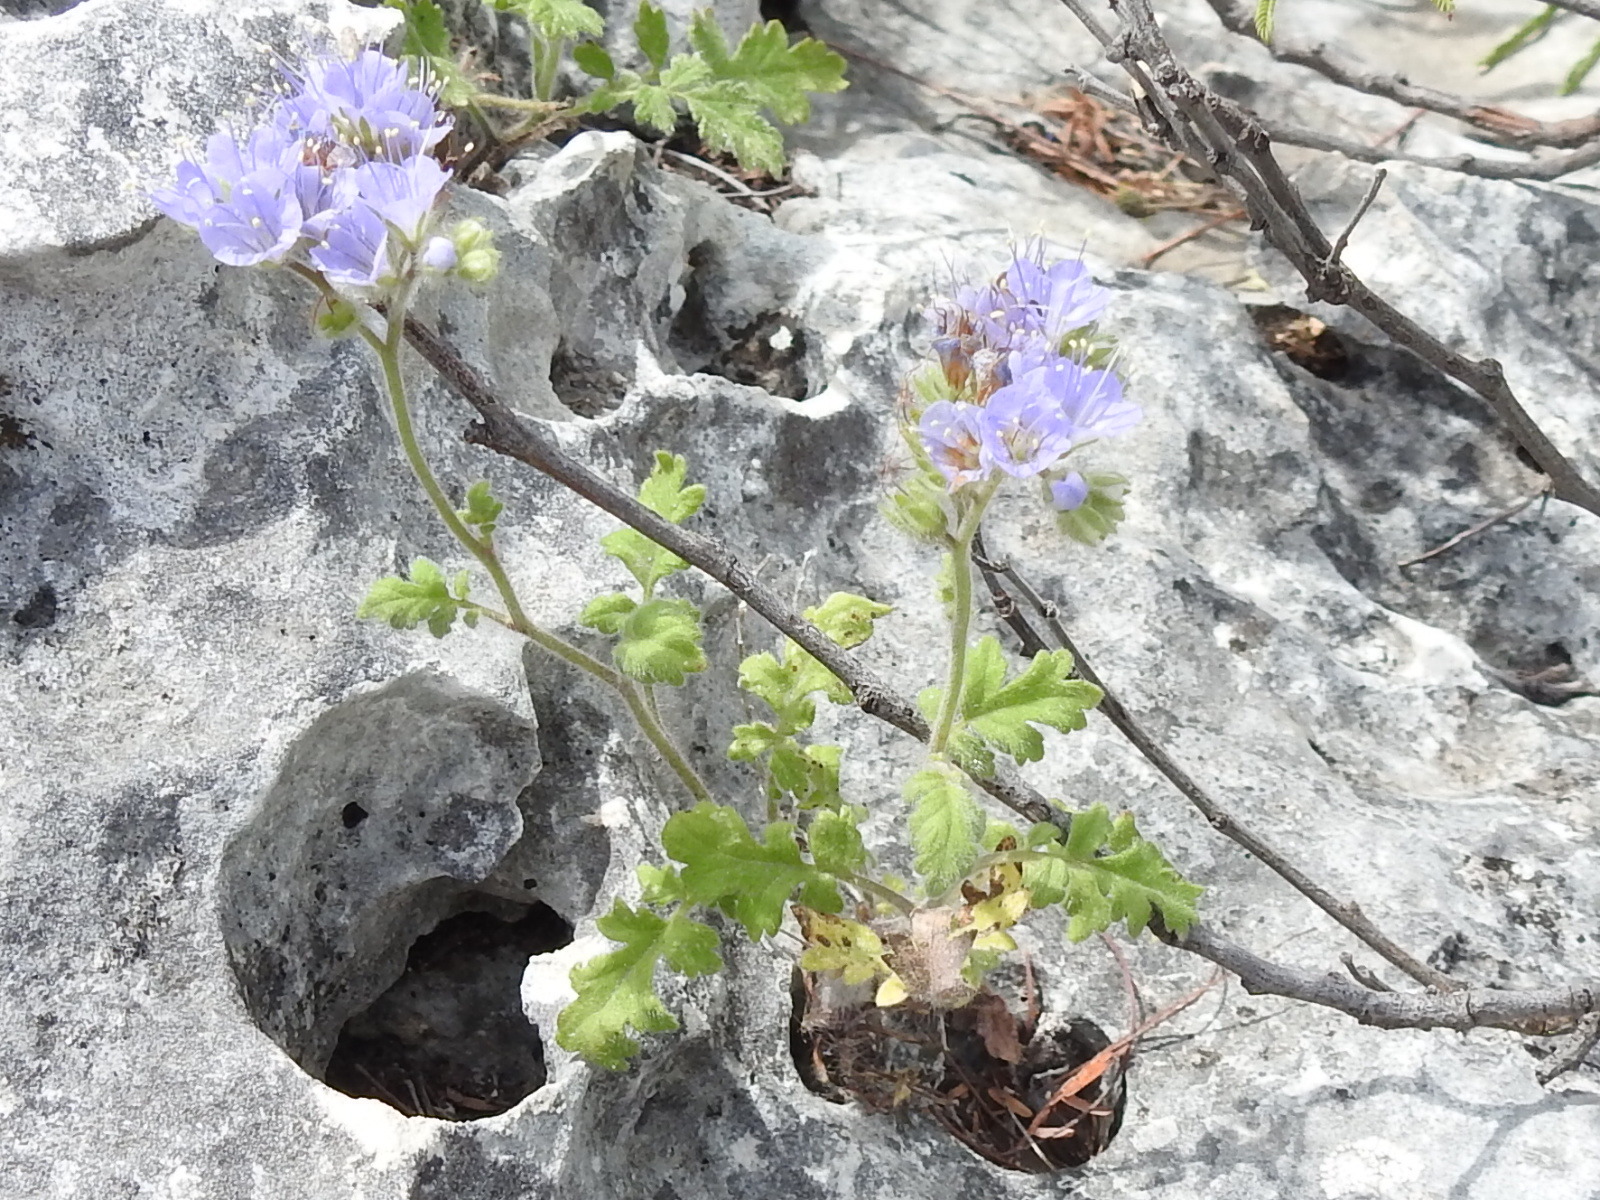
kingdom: Plantae
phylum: Tracheophyta
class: Magnoliopsida
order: Boraginales
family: Hydrophyllaceae
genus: Phacelia
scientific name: Phacelia congesta
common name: Blue curls
